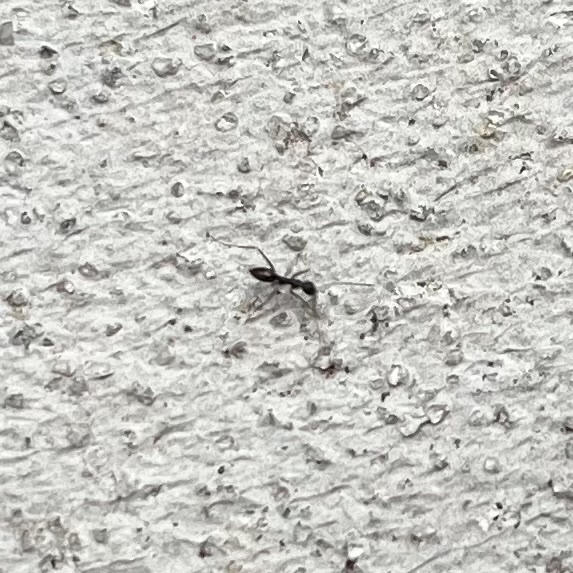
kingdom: Animalia
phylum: Arthropoda
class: Insecta
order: Hymenoptera
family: Formicidae
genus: Paratrechina
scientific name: Paratrechina longicornis
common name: Longhorned crazy ant
